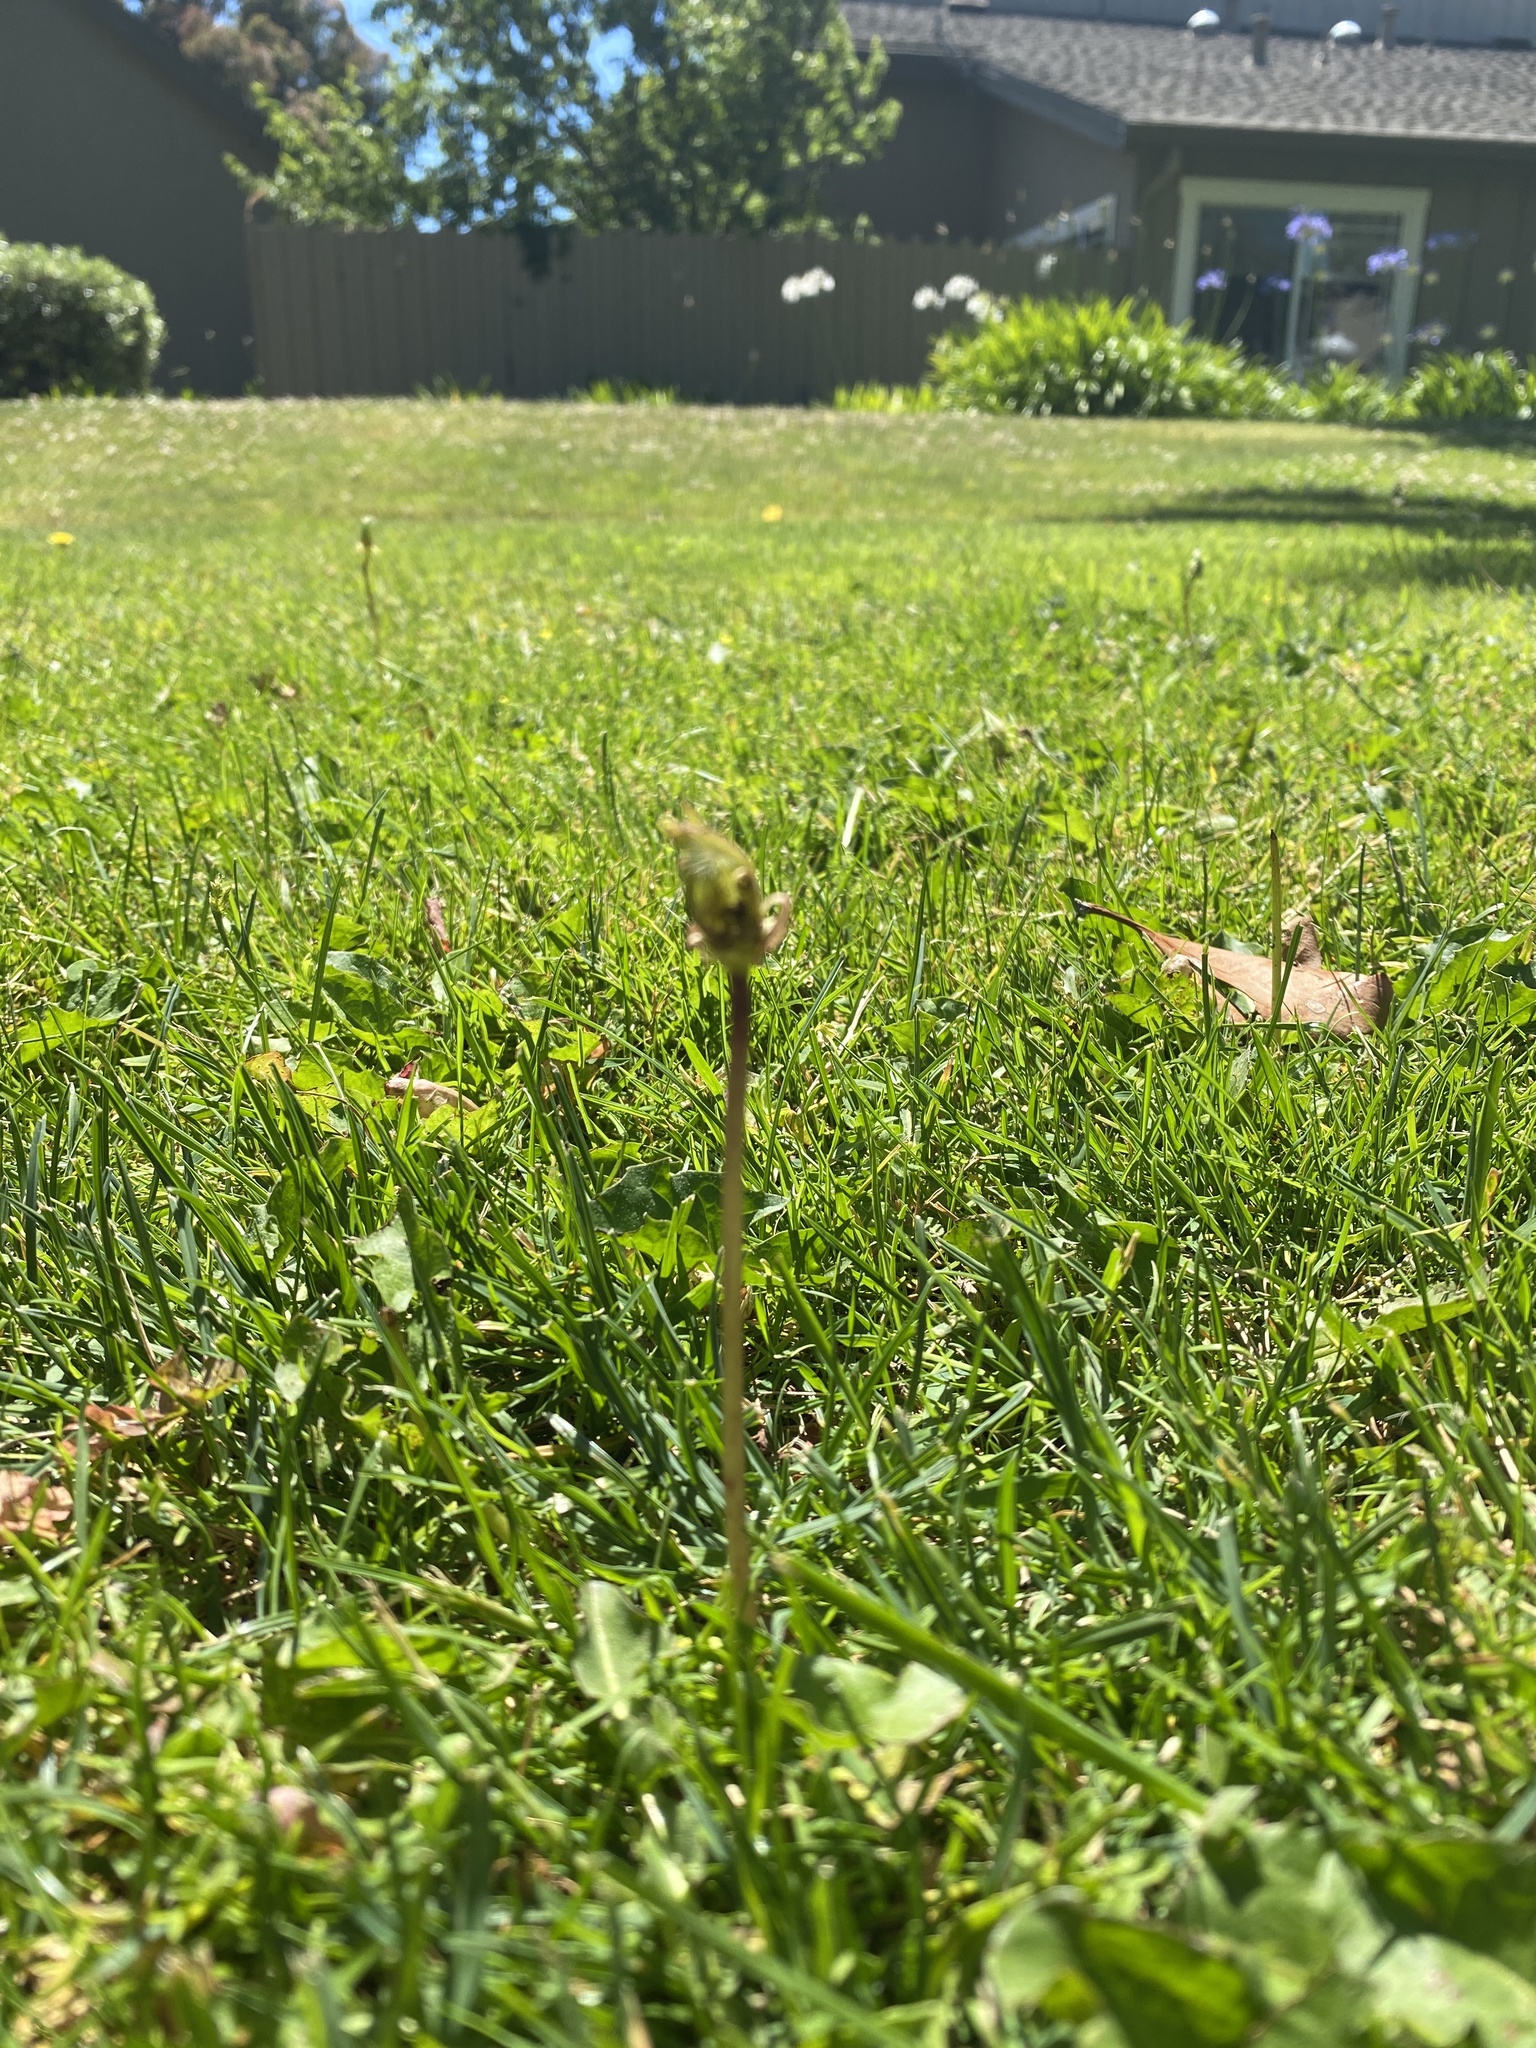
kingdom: Plantae
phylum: Tracheophyta
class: Magnoliopsida
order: Asterales
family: Asteraceae
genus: Taraxacum
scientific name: Taraxacum officinale
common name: Common dandelion
